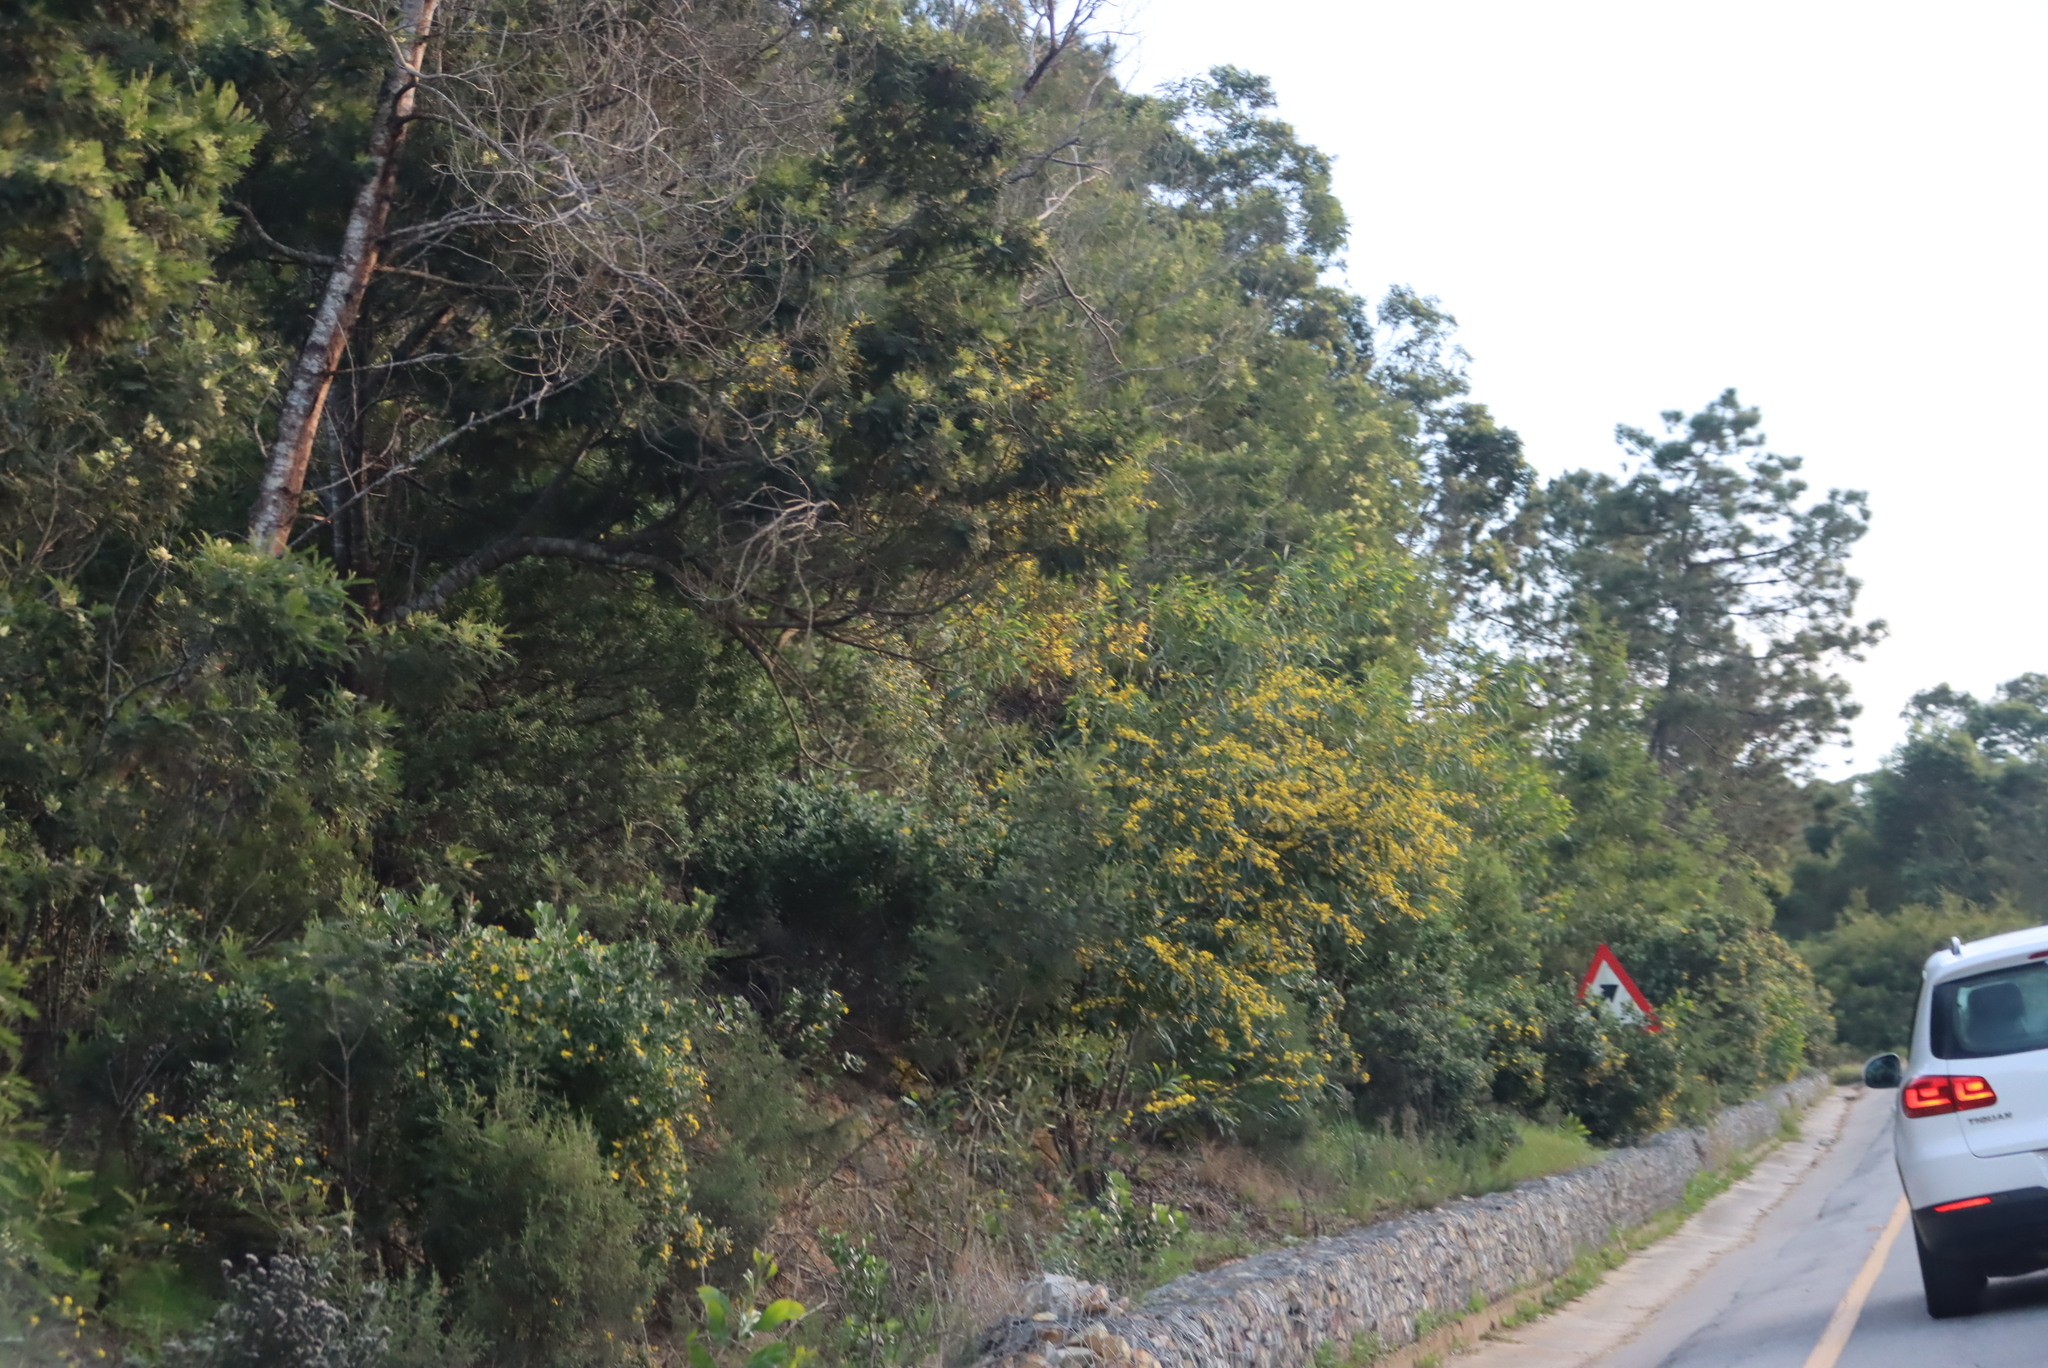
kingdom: Plantae
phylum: Tracheophyta
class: Magnoliopsida
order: Fabales
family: Fabaceae
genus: Acacia
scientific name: Acacia saligna
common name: Orange wattle
